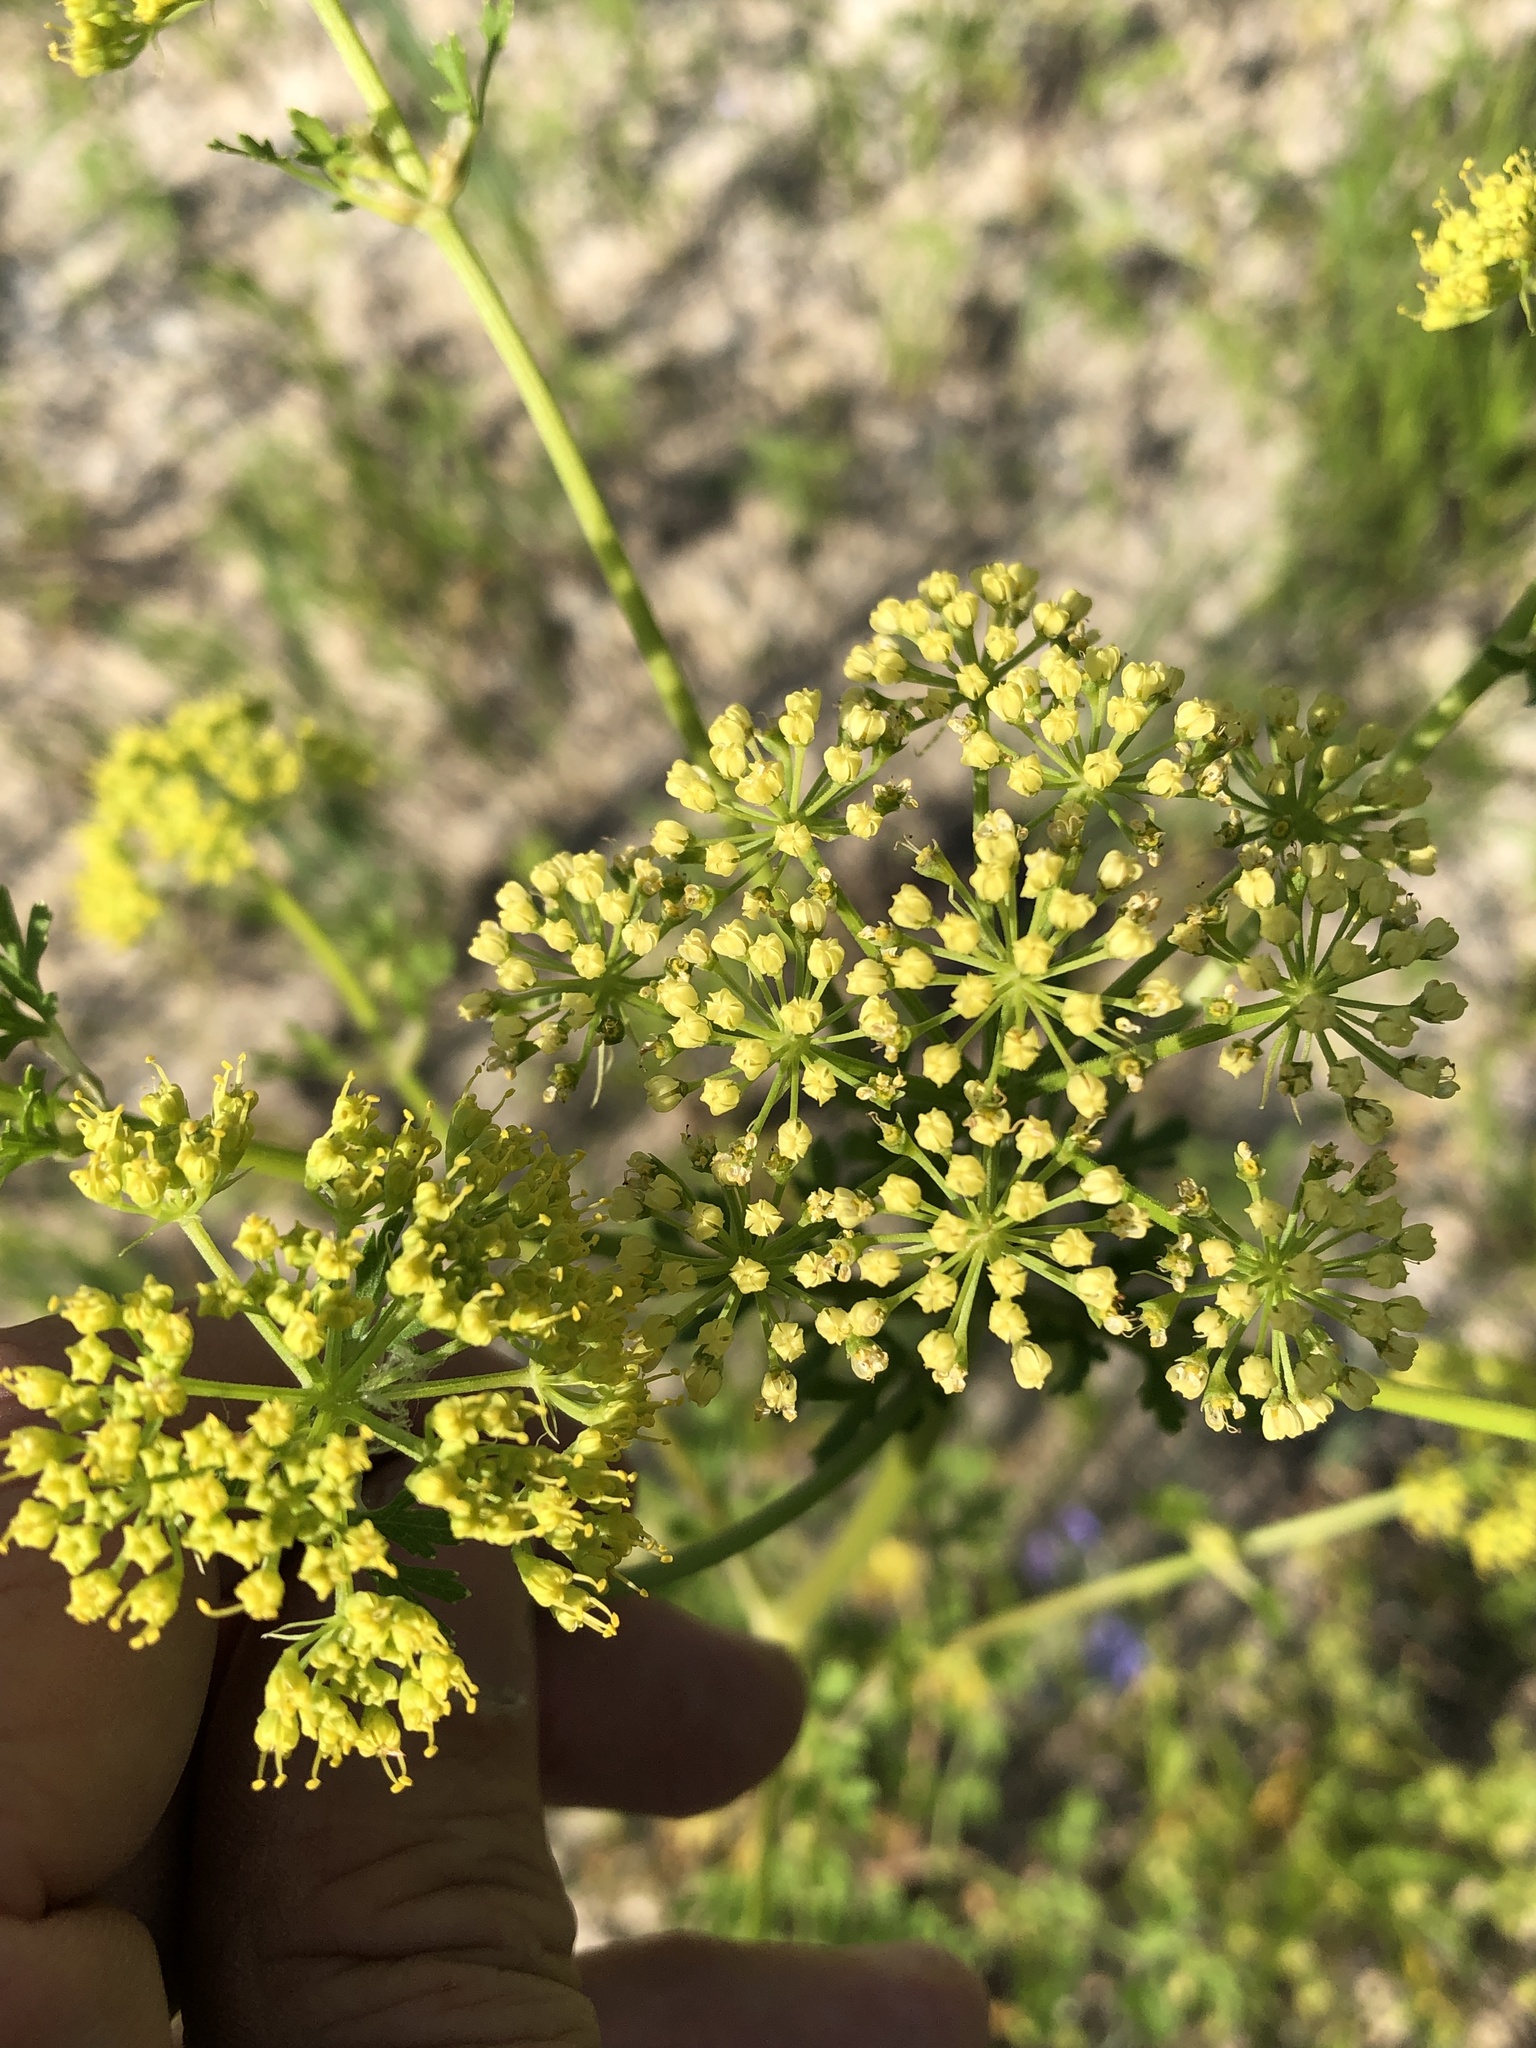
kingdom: Plantae
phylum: Tracheophyta
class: Magnoliopsida
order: Apiales
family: Apiaceae
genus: Polytaenia
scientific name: Polytaenia texana
